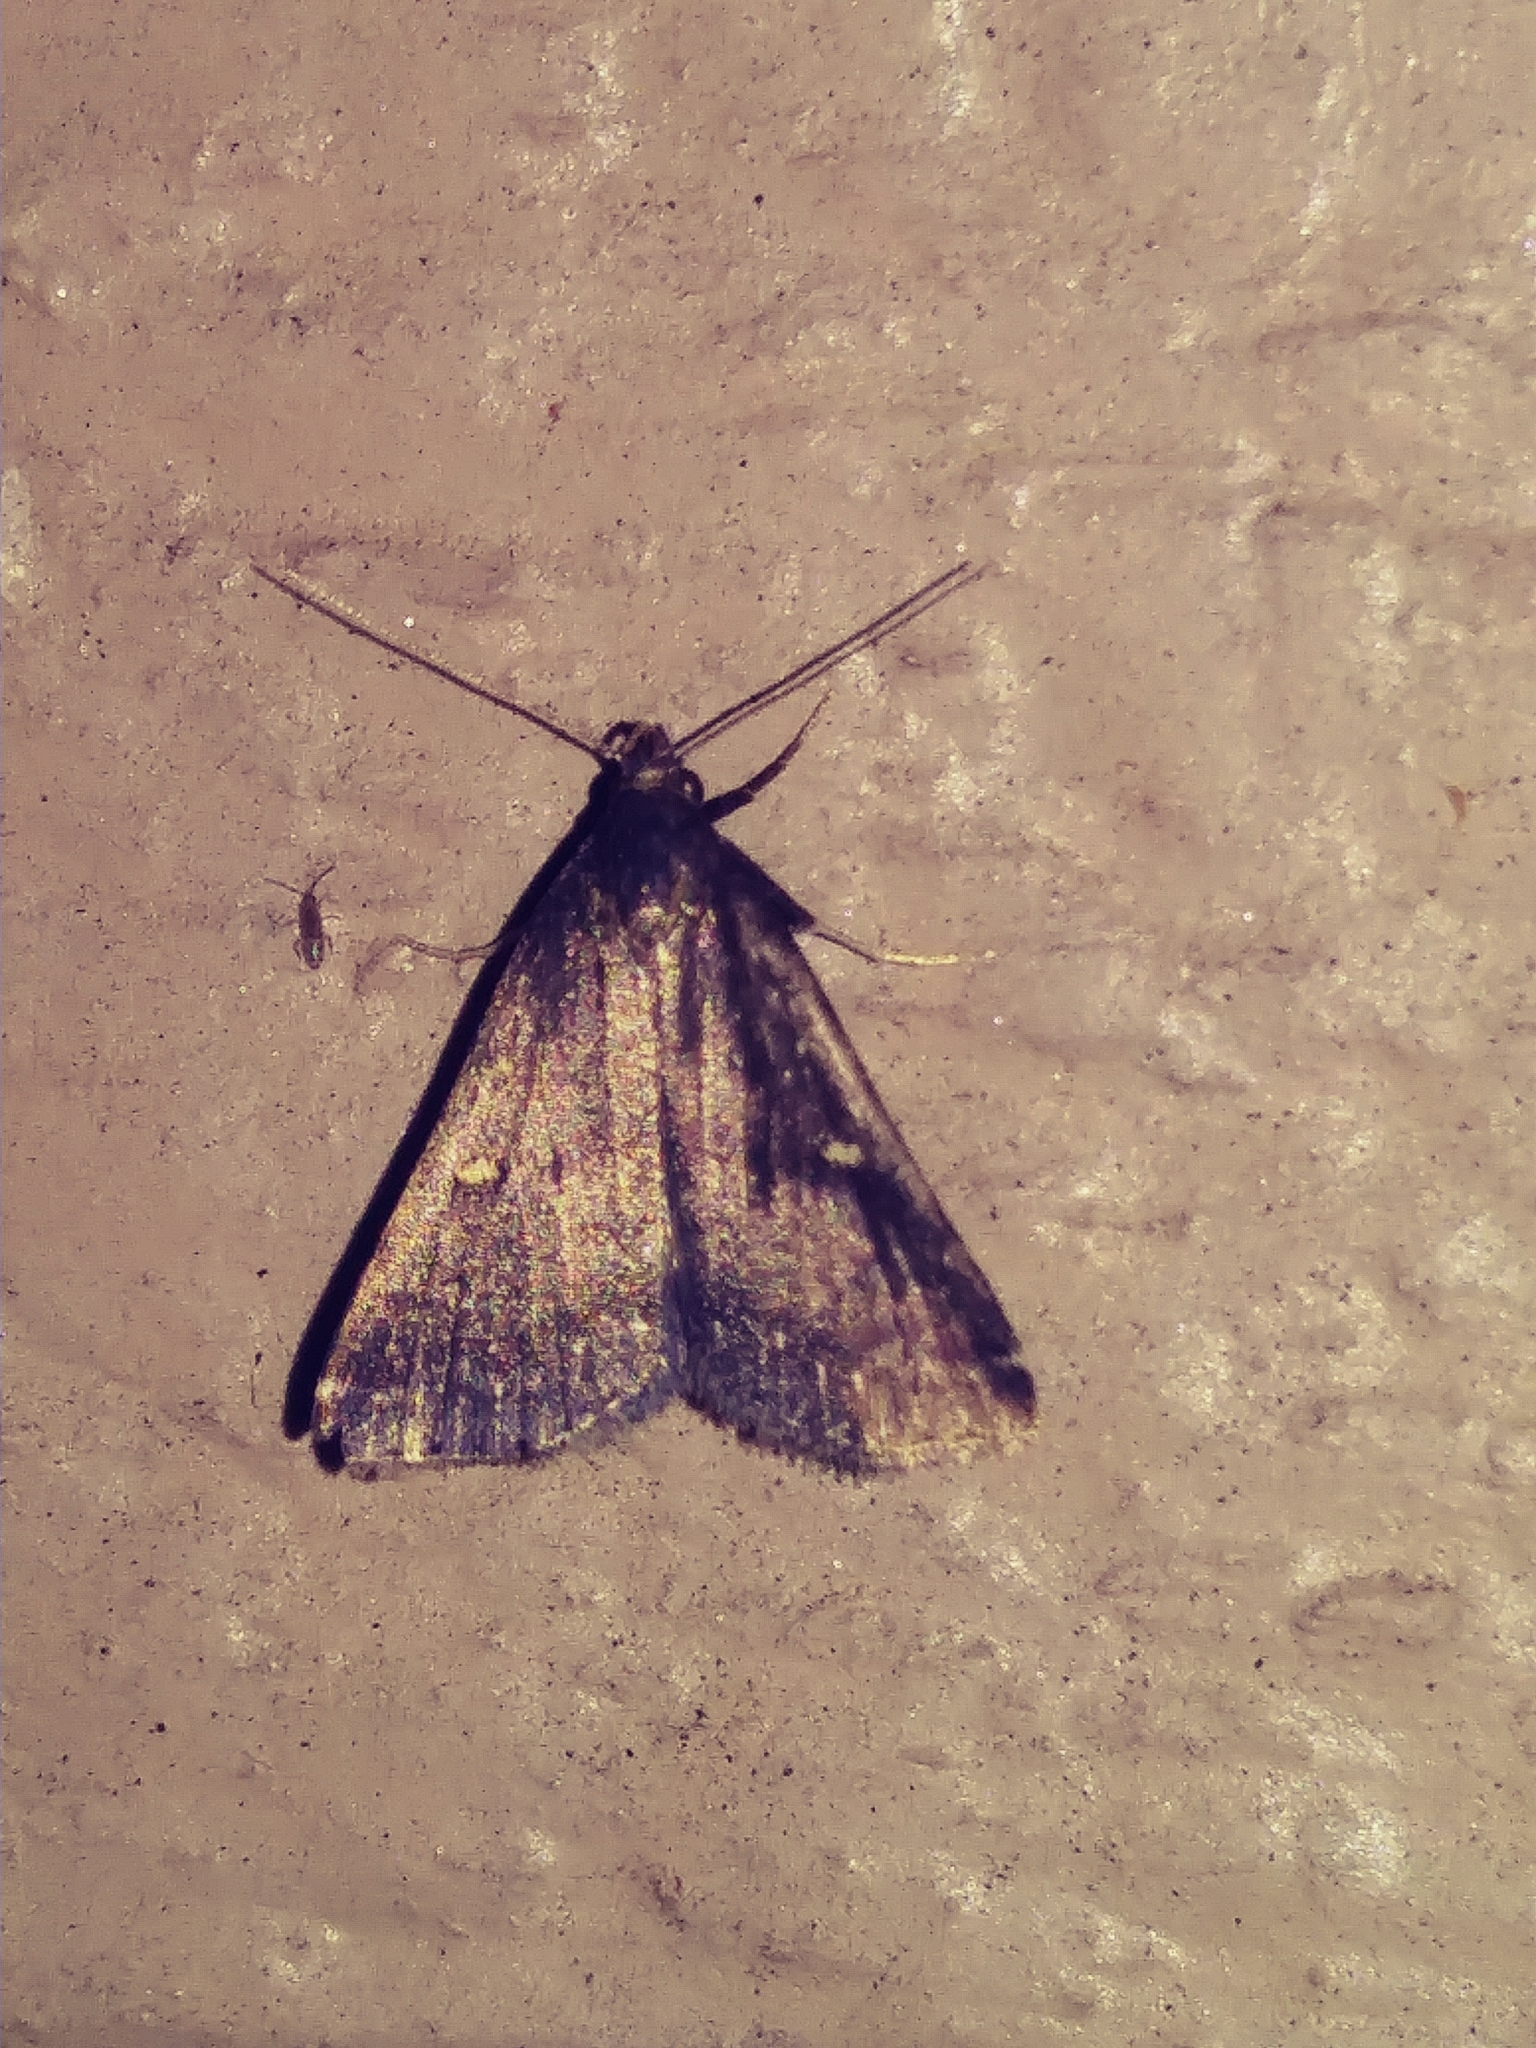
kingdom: Animalia
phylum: Arthropoda
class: Insecta
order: Lepidoptera
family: Erebidae
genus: Tetanolita
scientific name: Tetanolita mynesalis
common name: Smoky tetanolita moth
